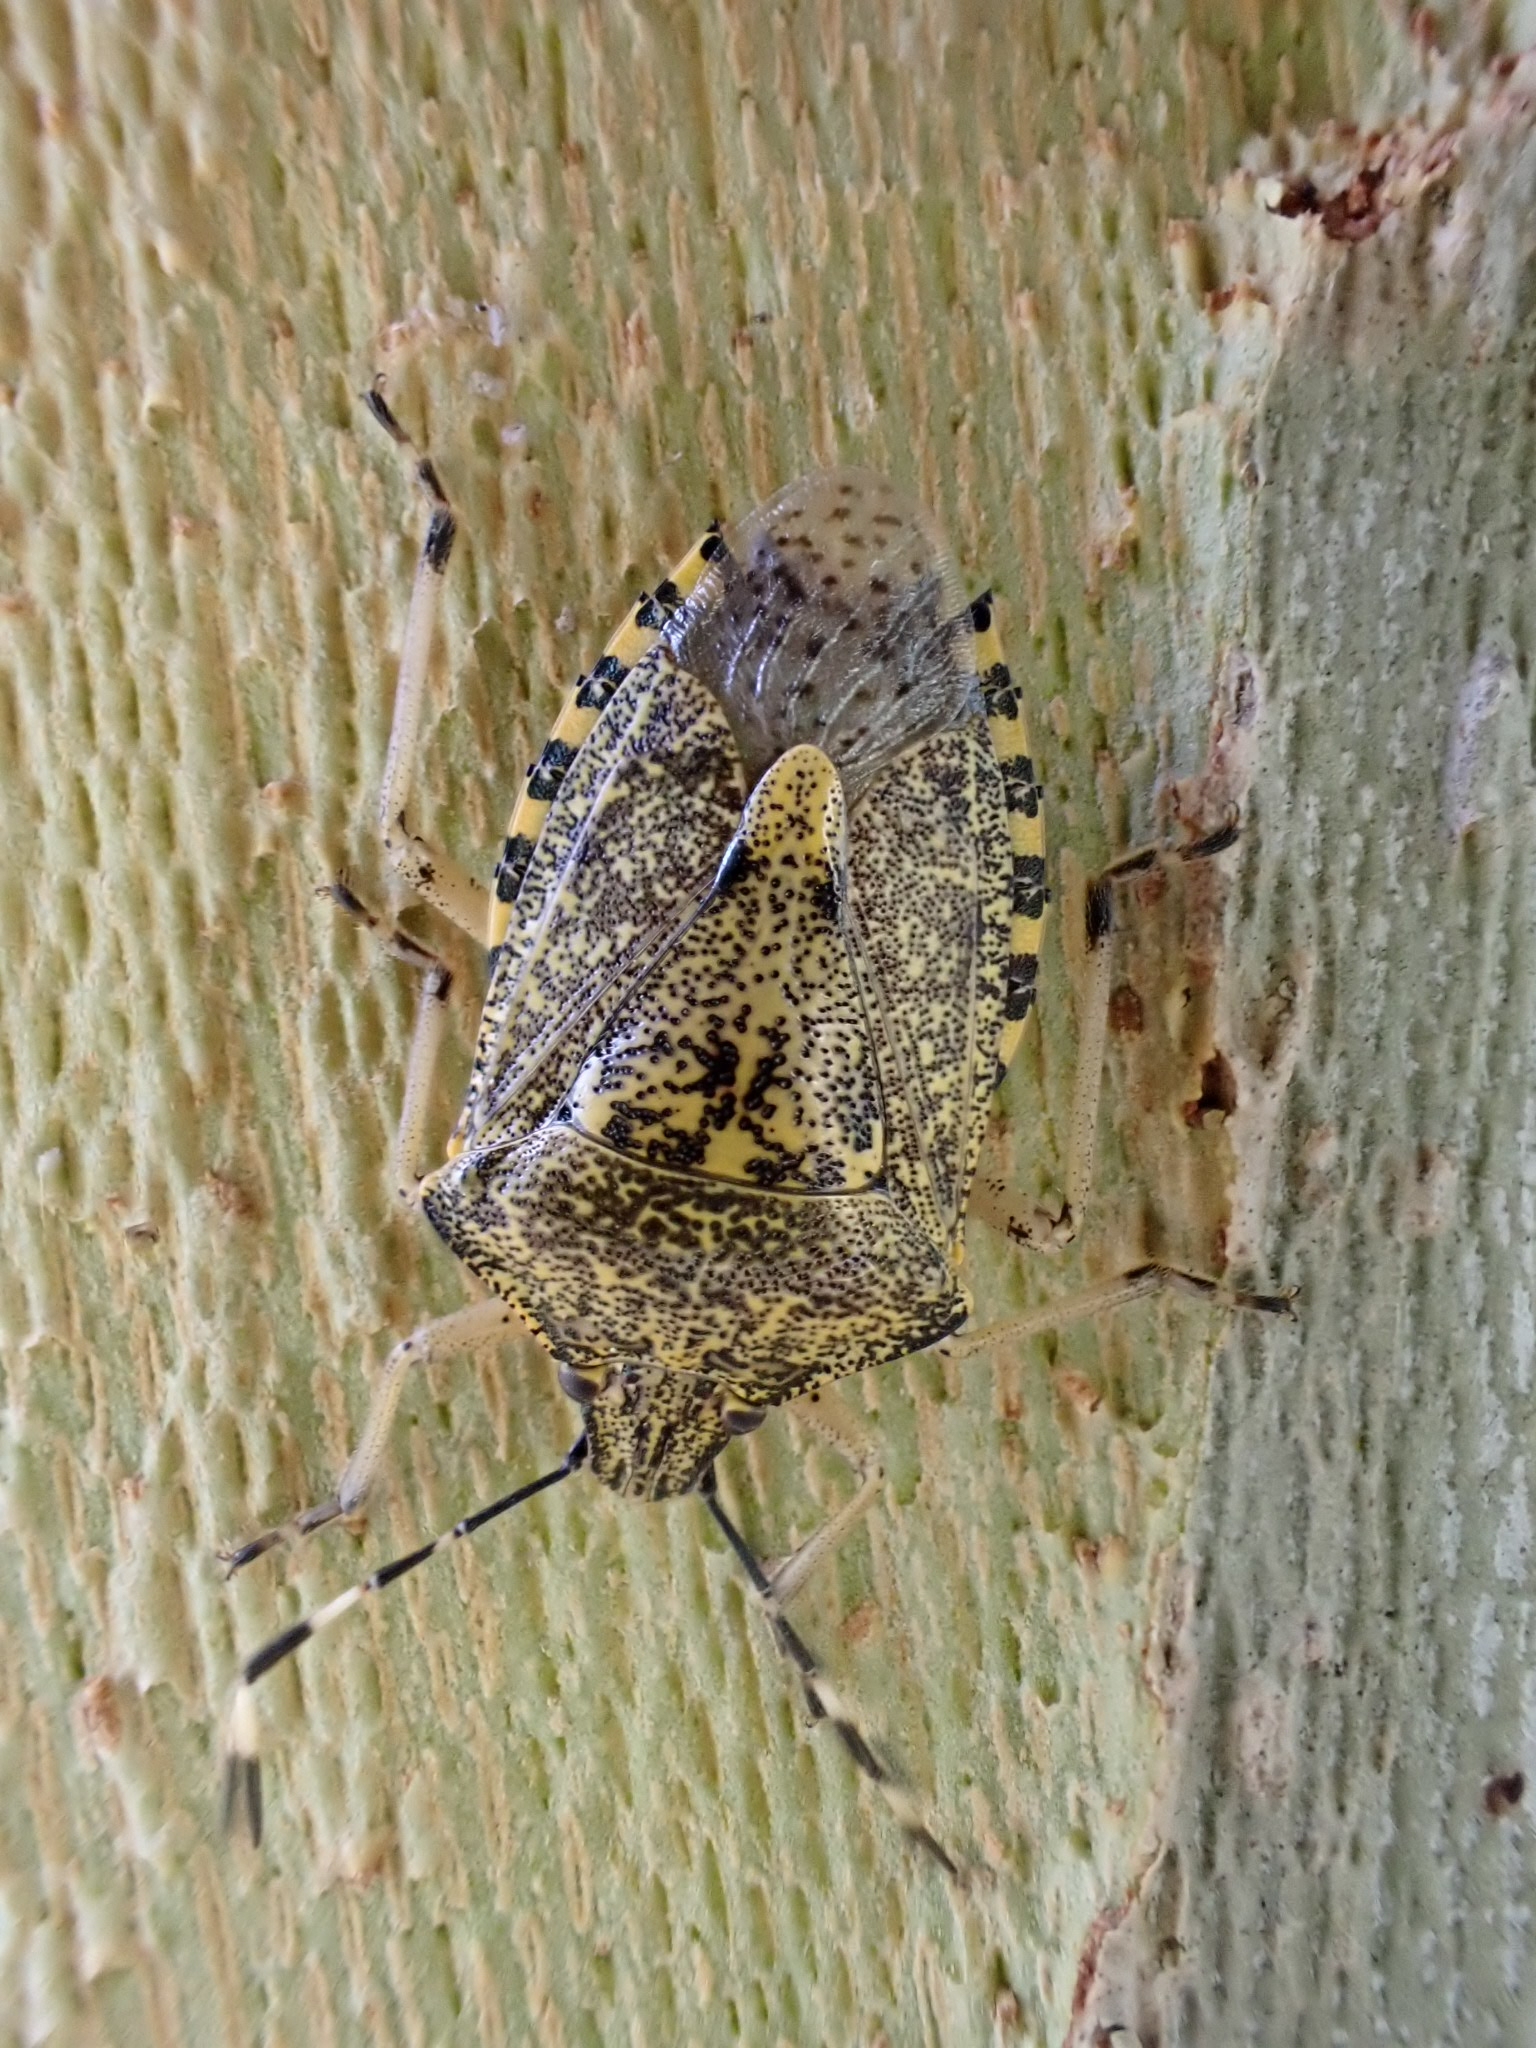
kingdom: Animalia
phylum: Arthropoda
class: Insecta
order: Hemiptera
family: Pentatomidae
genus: Rhaphigaster
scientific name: Rhaphigaster nebulosa
